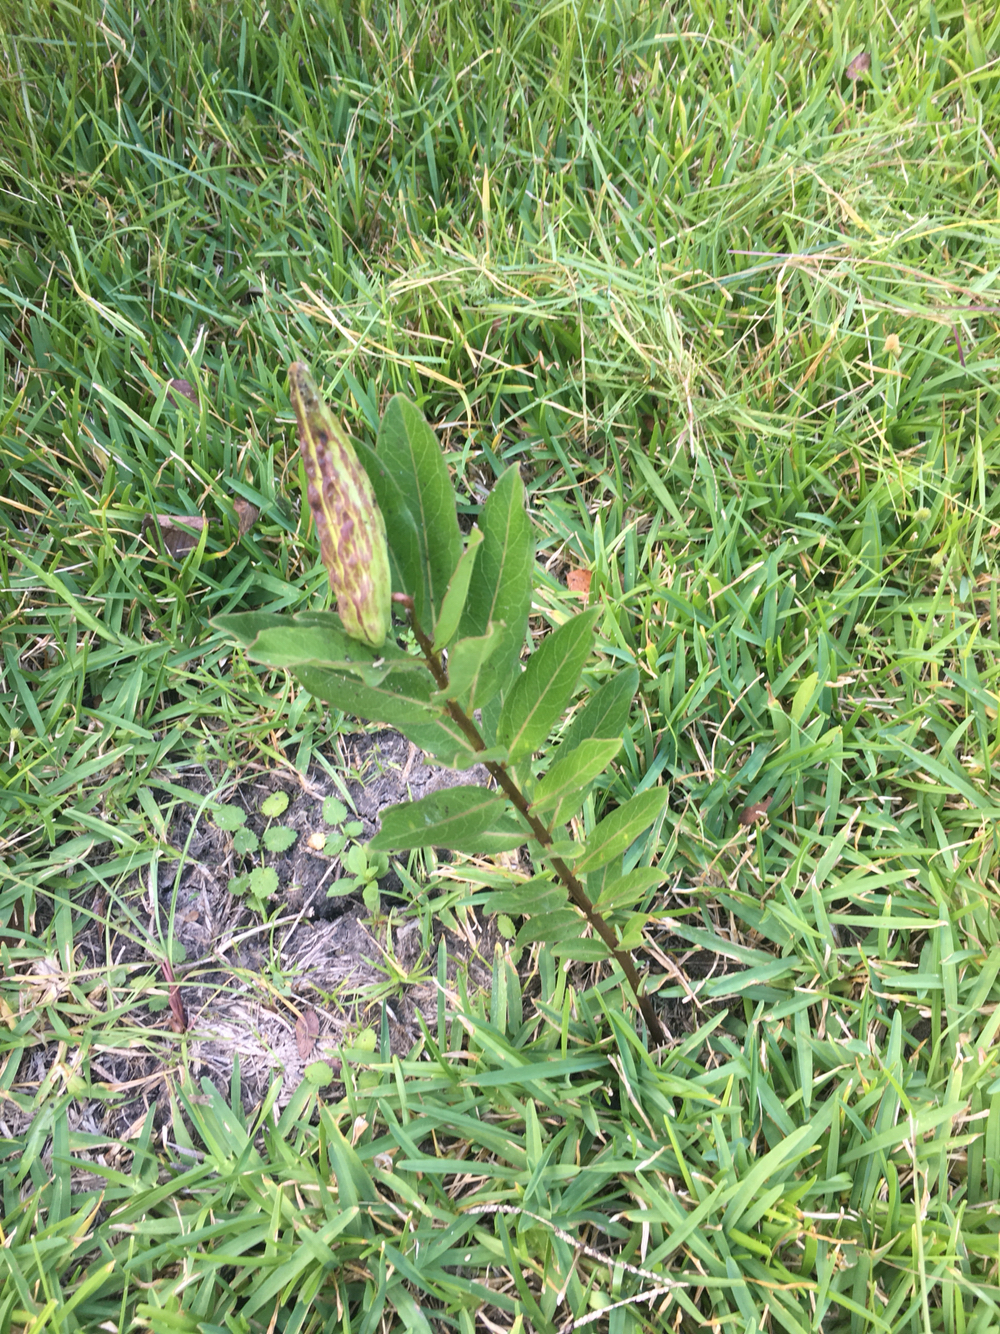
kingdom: Plantae
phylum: Tracheophyta
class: Magnoliopsida
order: Gentianales
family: Apocynaceae
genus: Asclepias
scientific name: Asclepias viridis
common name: Antelope-horns
